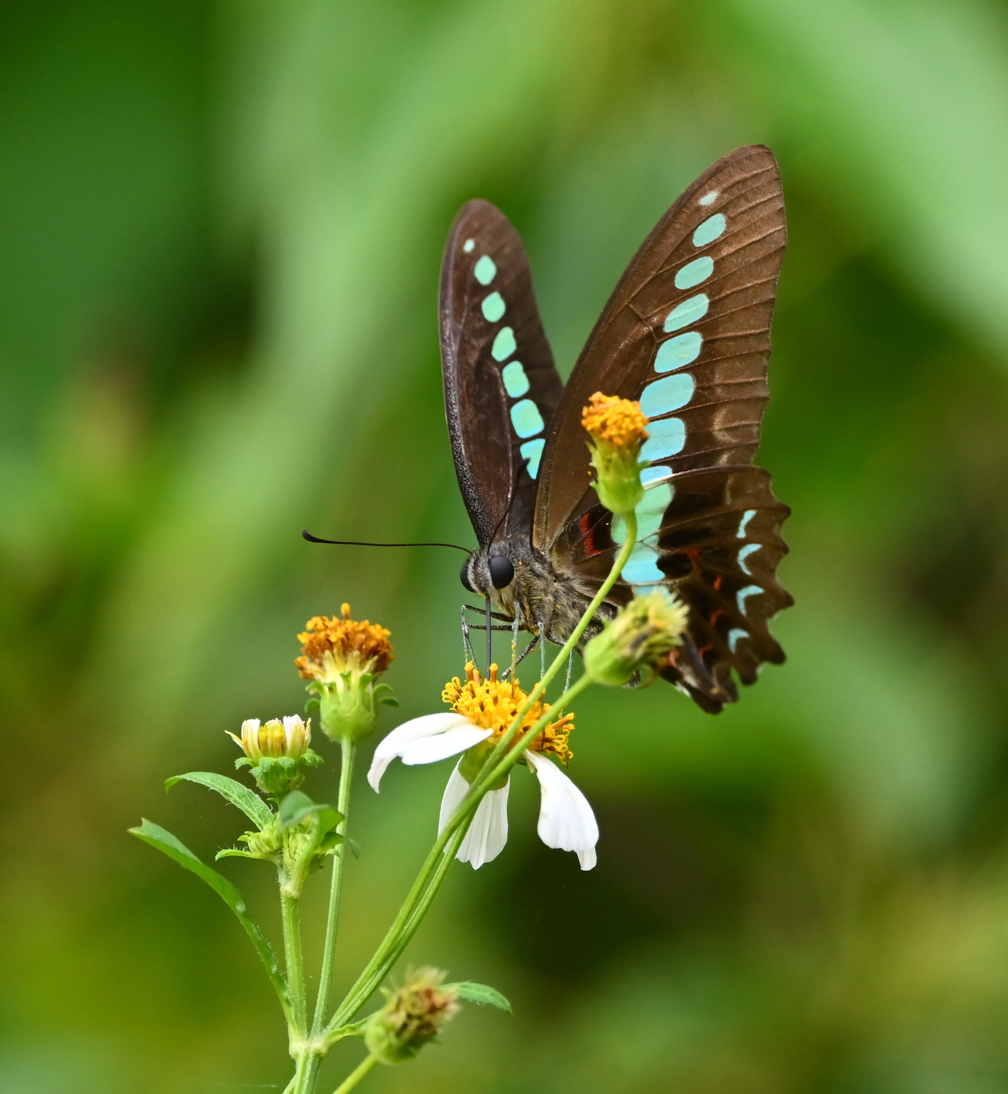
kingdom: Fungi
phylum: Ascomycota
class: Sordariomycetes
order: Microascales
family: Microascaceae
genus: Graphium
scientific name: Graphium sarpedon
